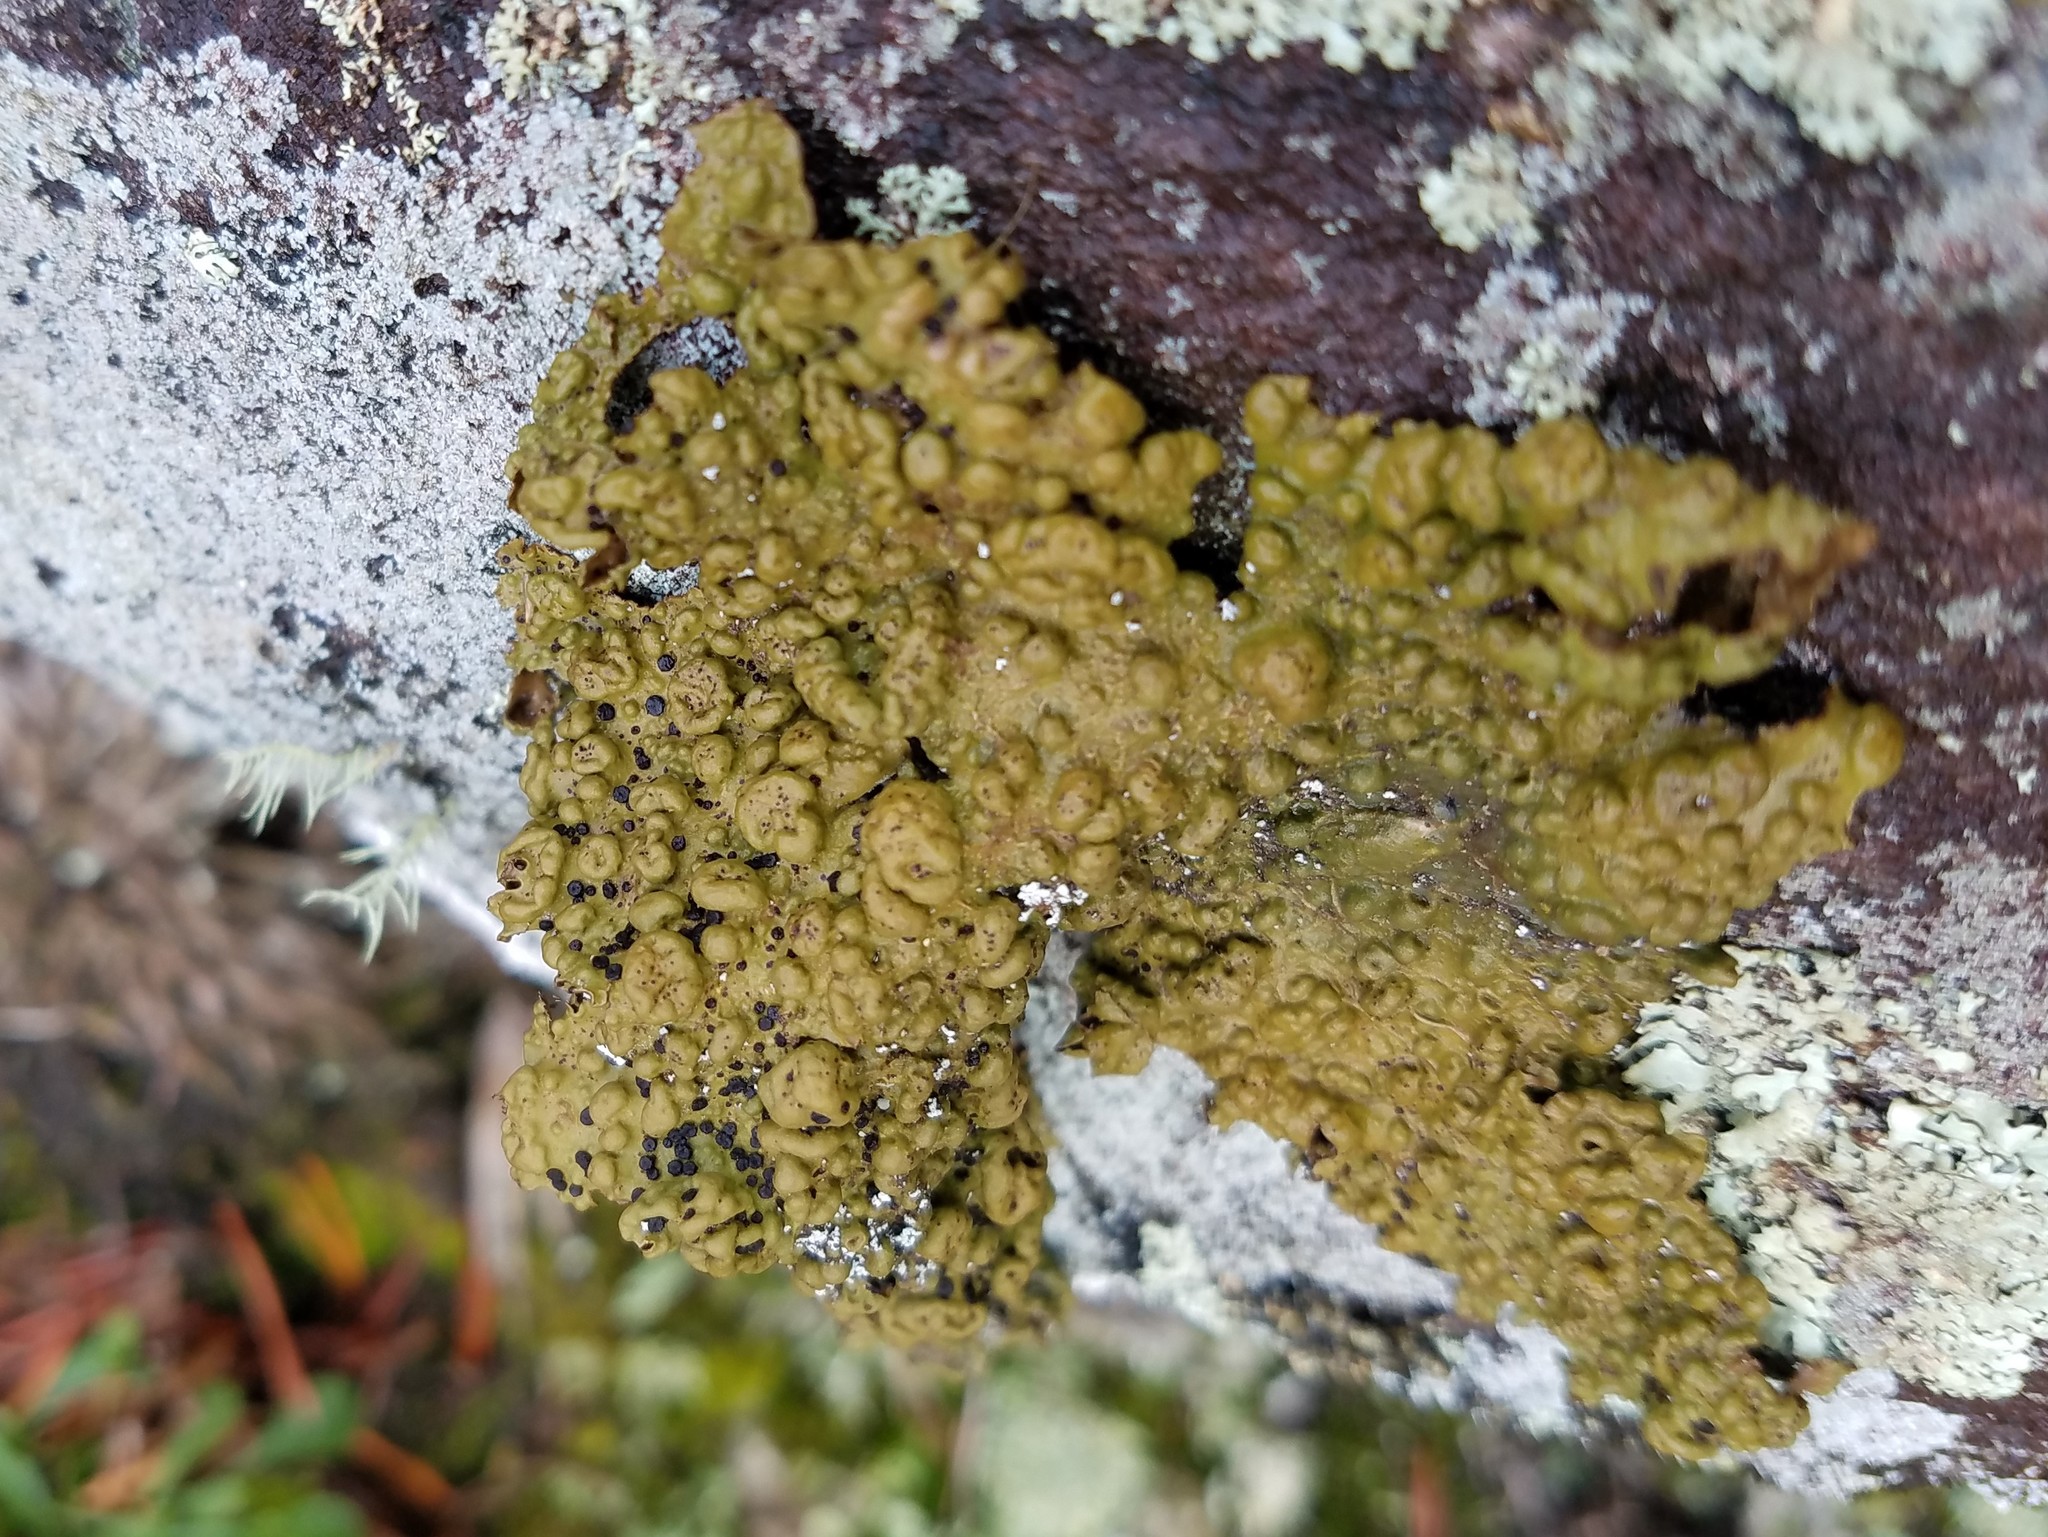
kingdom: Fungi
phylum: Ascomycota
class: Lecanoromycetes
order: Umbilicariales
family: Umbilicariaceae
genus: Lasallia
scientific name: Lasallia papulosa
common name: Common toadskin lichen
